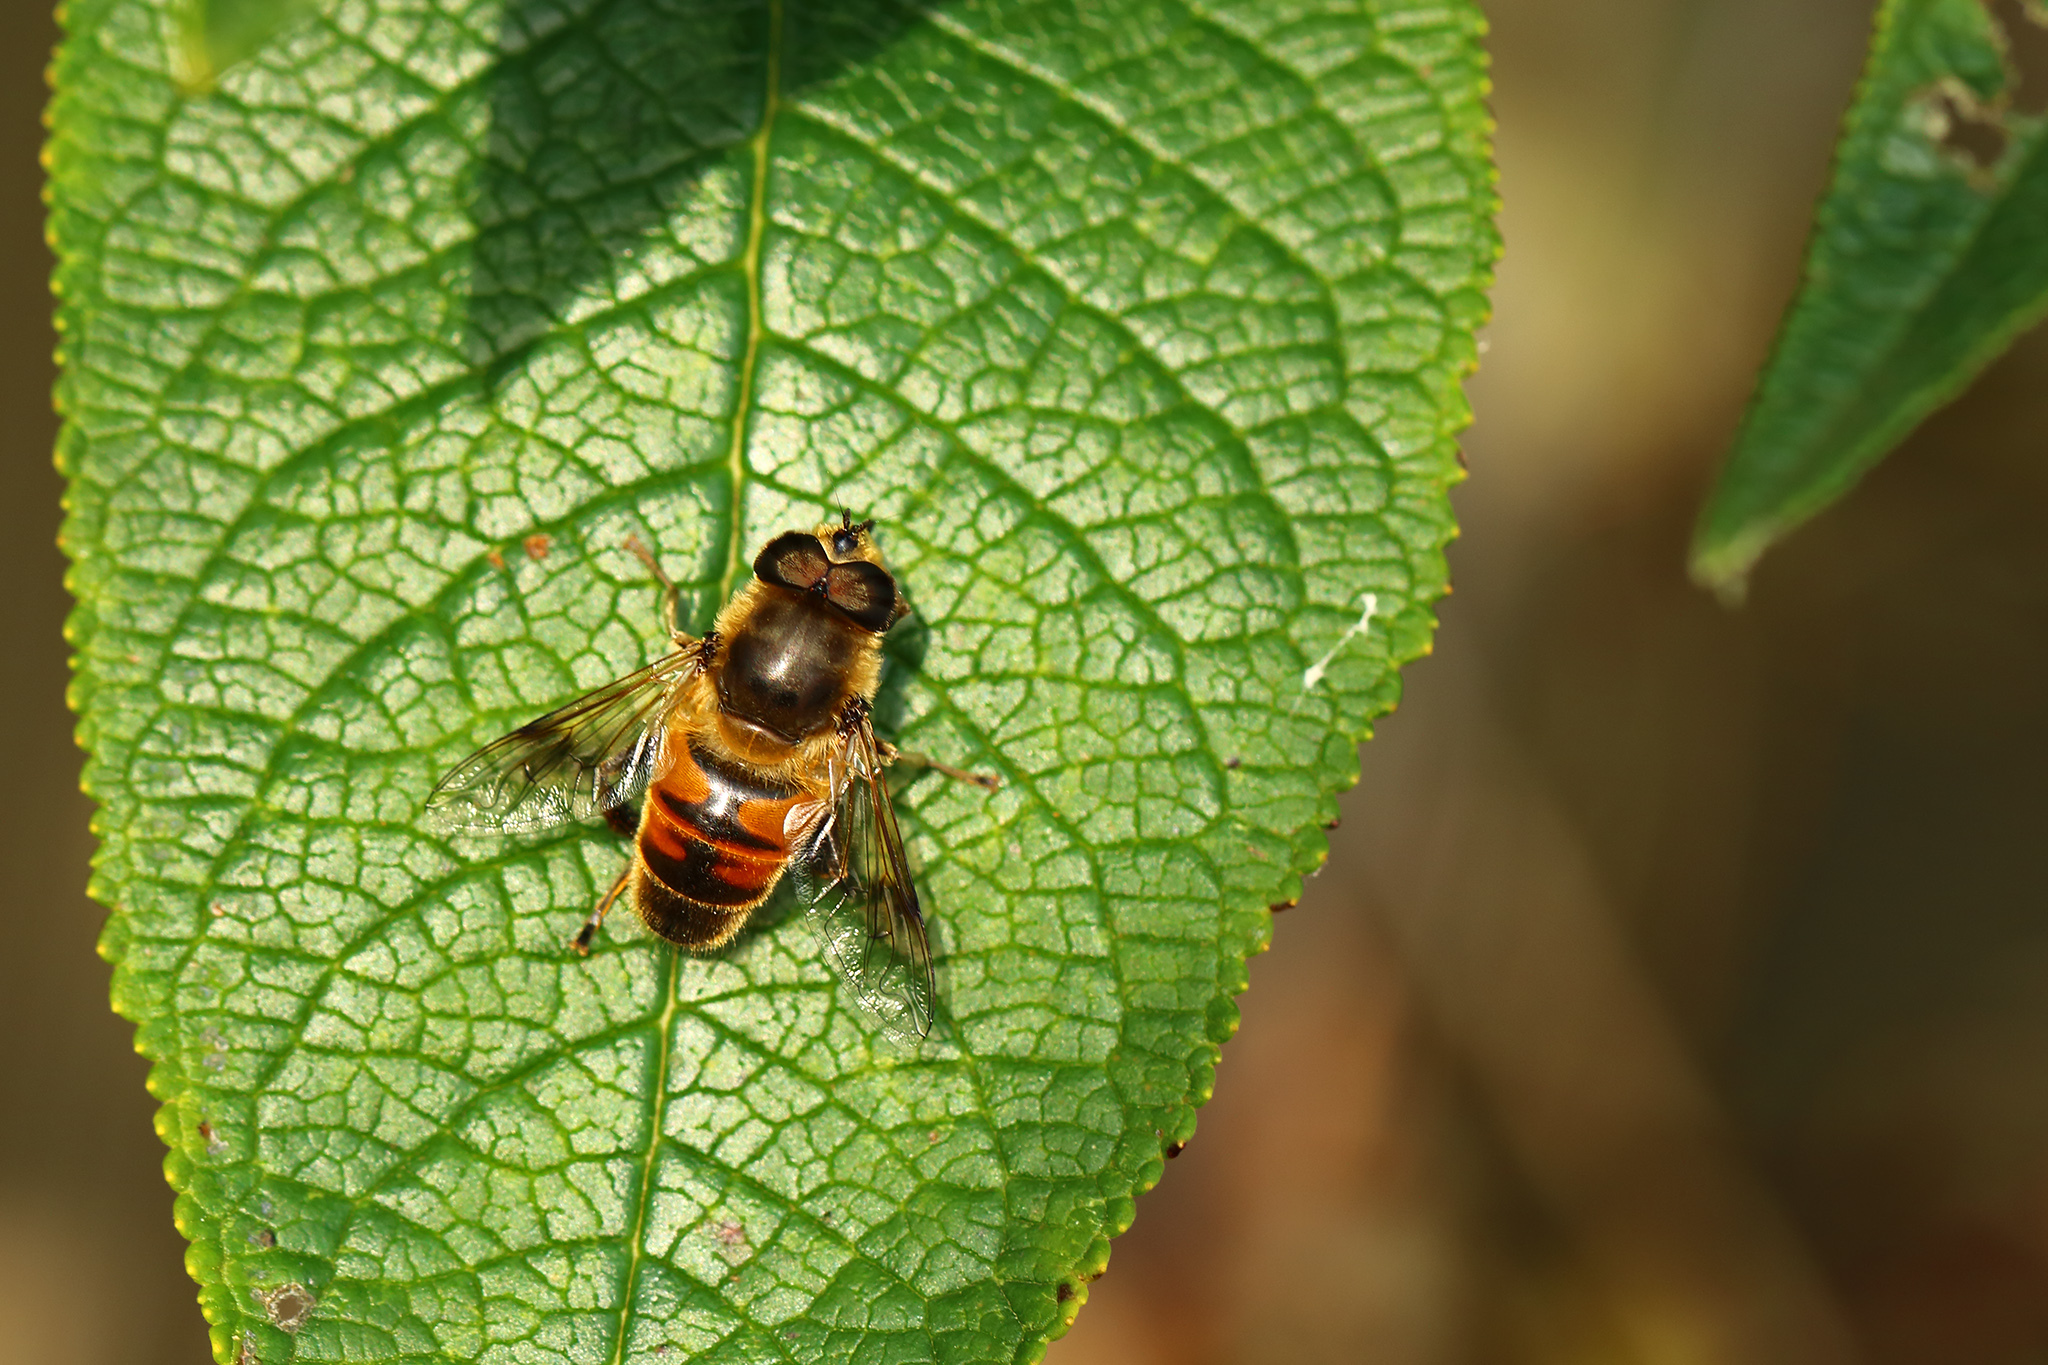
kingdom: Animalia
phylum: Arthropoda
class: Insecta
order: Diptera
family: Syrphidae
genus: Eristalis
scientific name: Eristalis tenax
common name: Drone fly
